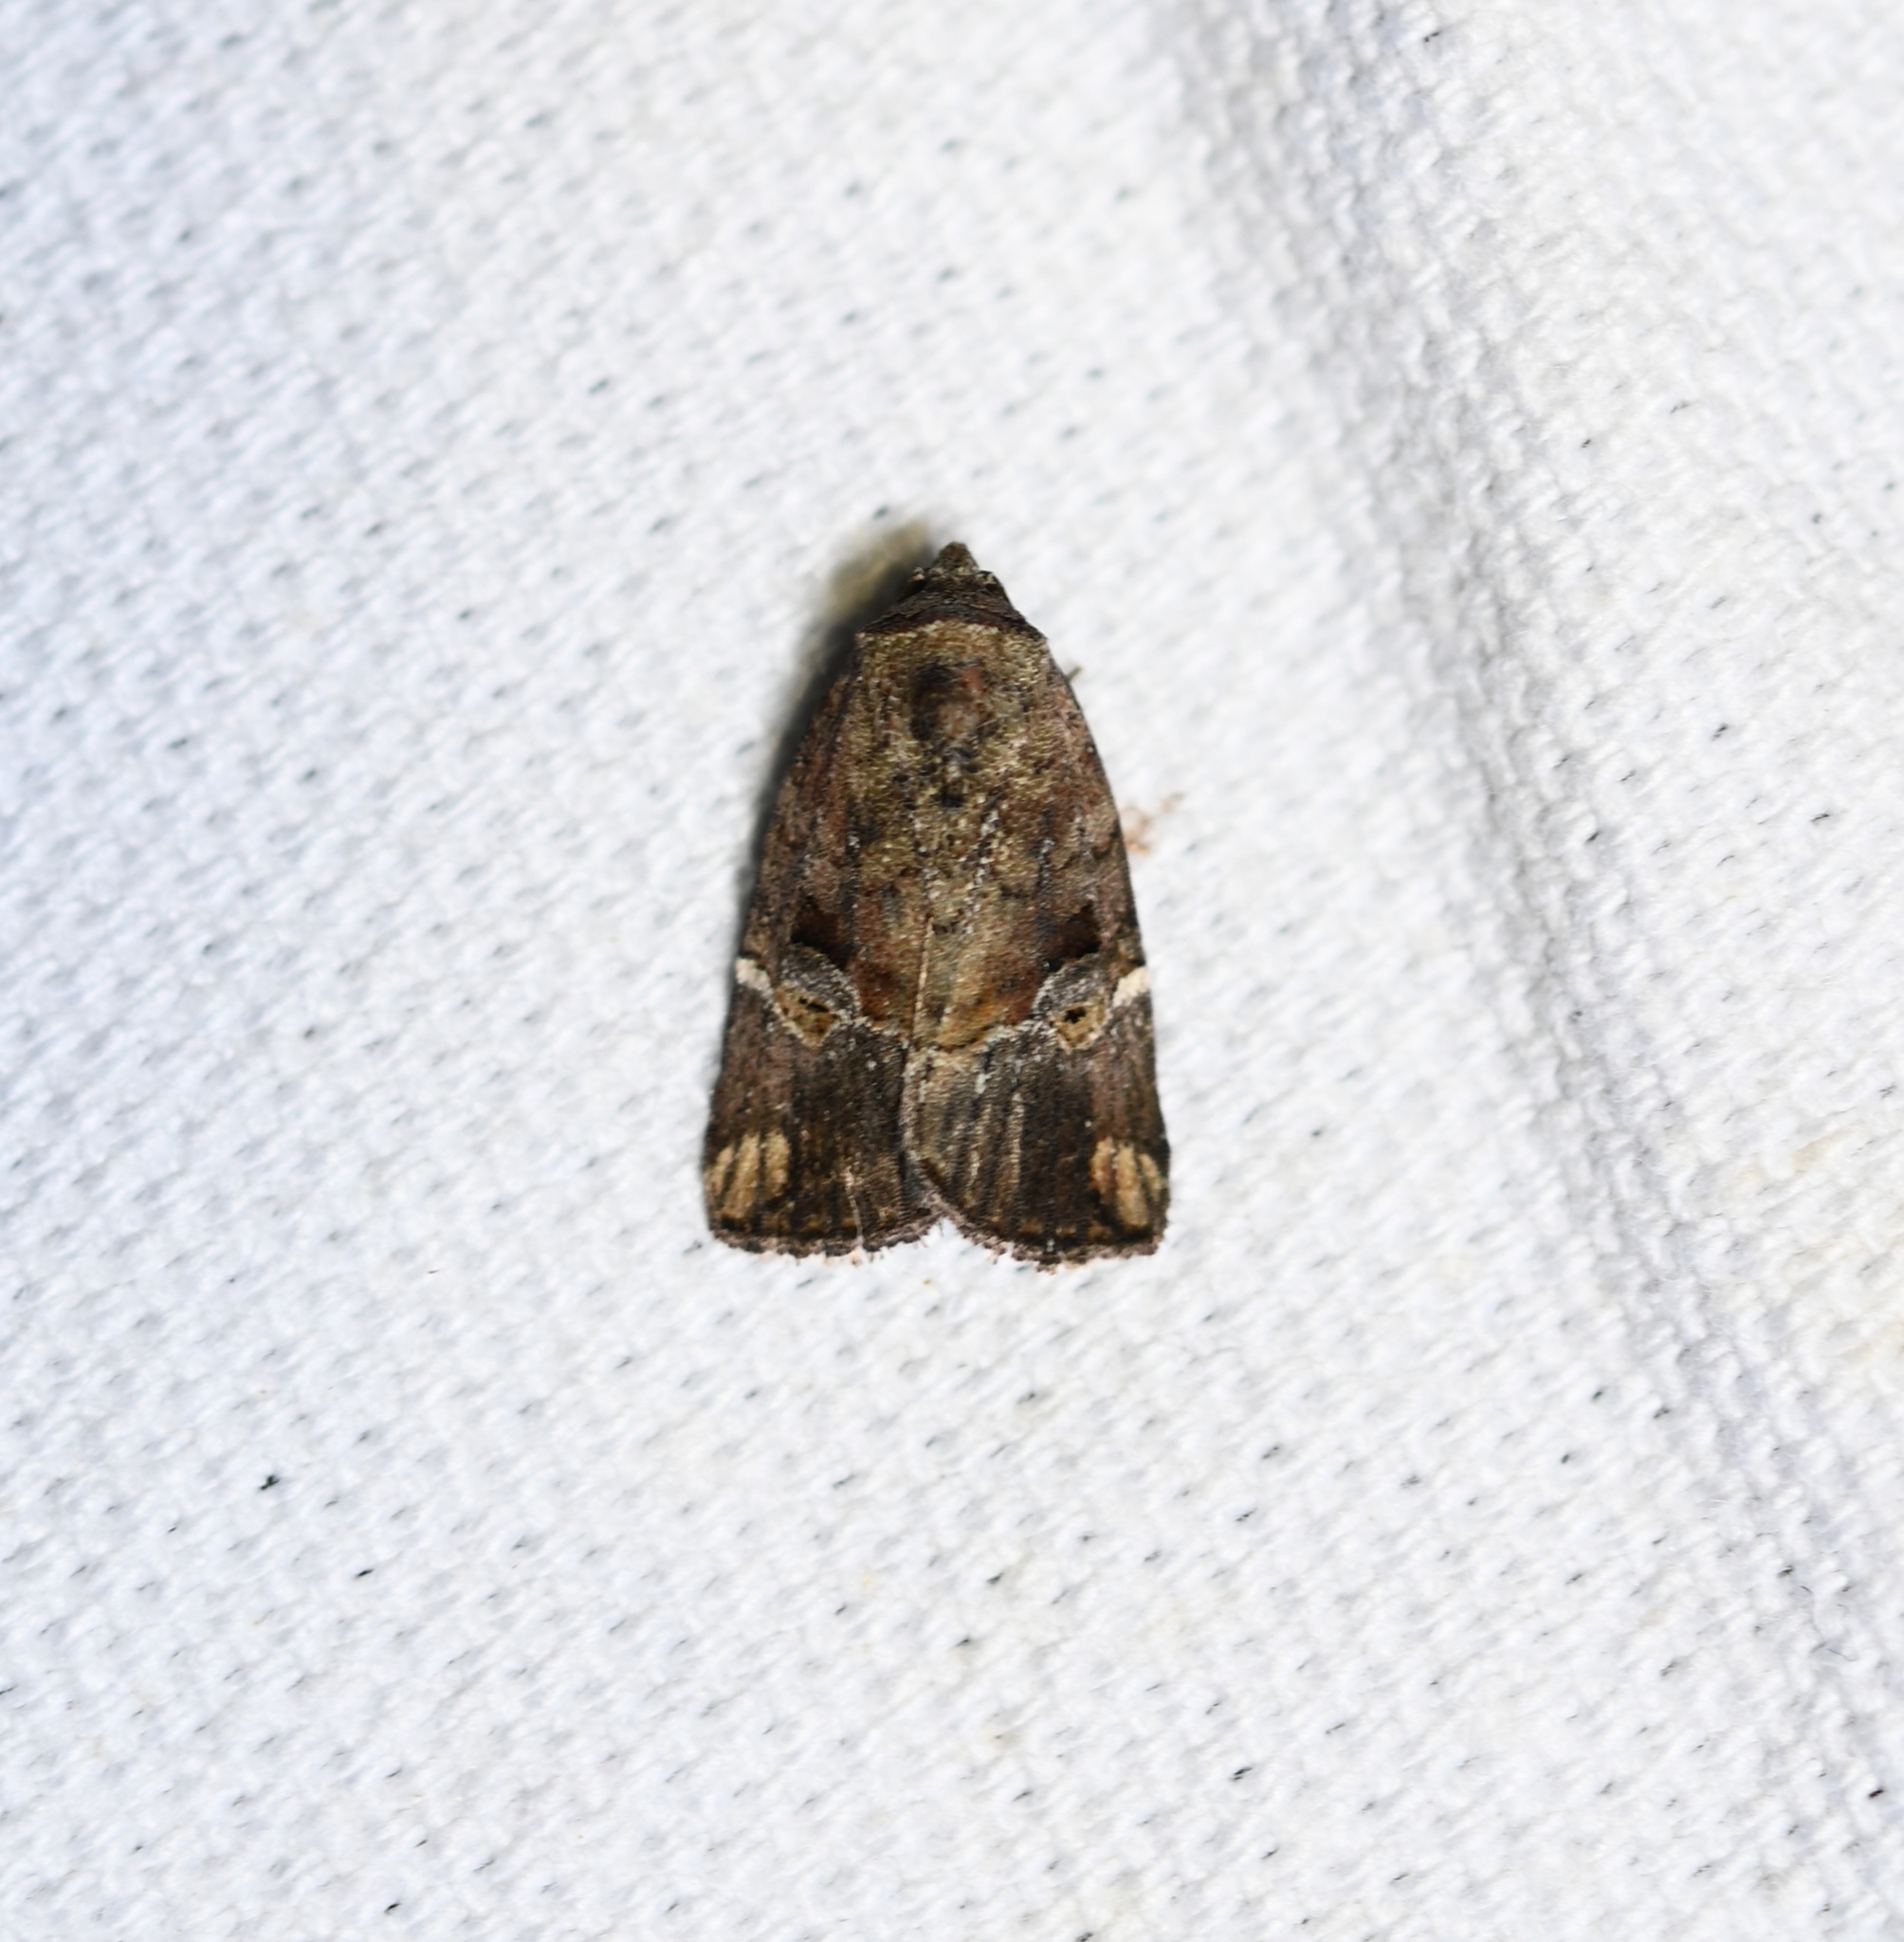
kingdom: Animalia
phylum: Arthropoda
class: Insecta
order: Lepidoptera
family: Noctuidae
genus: Elaphria
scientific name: Elaphria versicolor
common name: Fir harlequin
